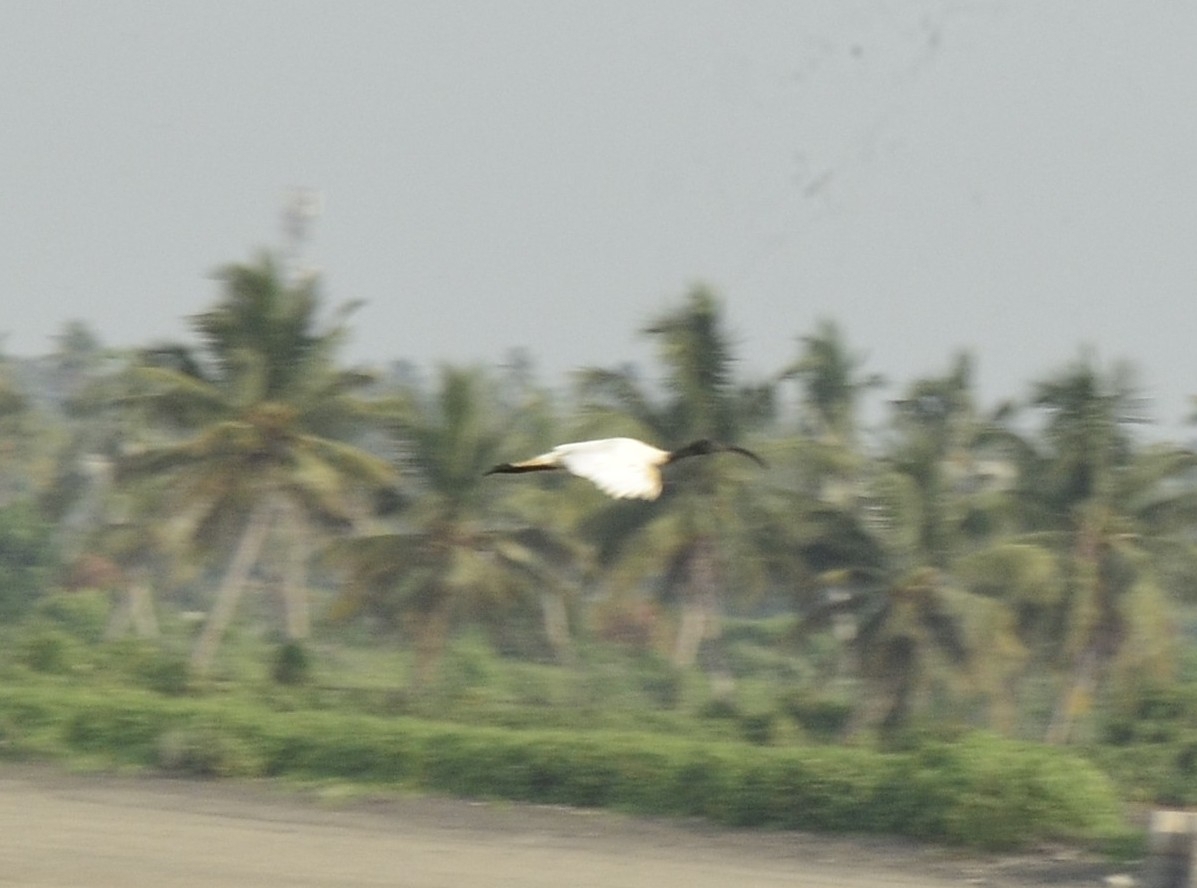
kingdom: Animalia
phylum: Chordata
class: Aves
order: Pelecaniformes
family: Threskiornithidae
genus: Threskiornis
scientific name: Threskiornis melanocephalus
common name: Black-headed ibis
